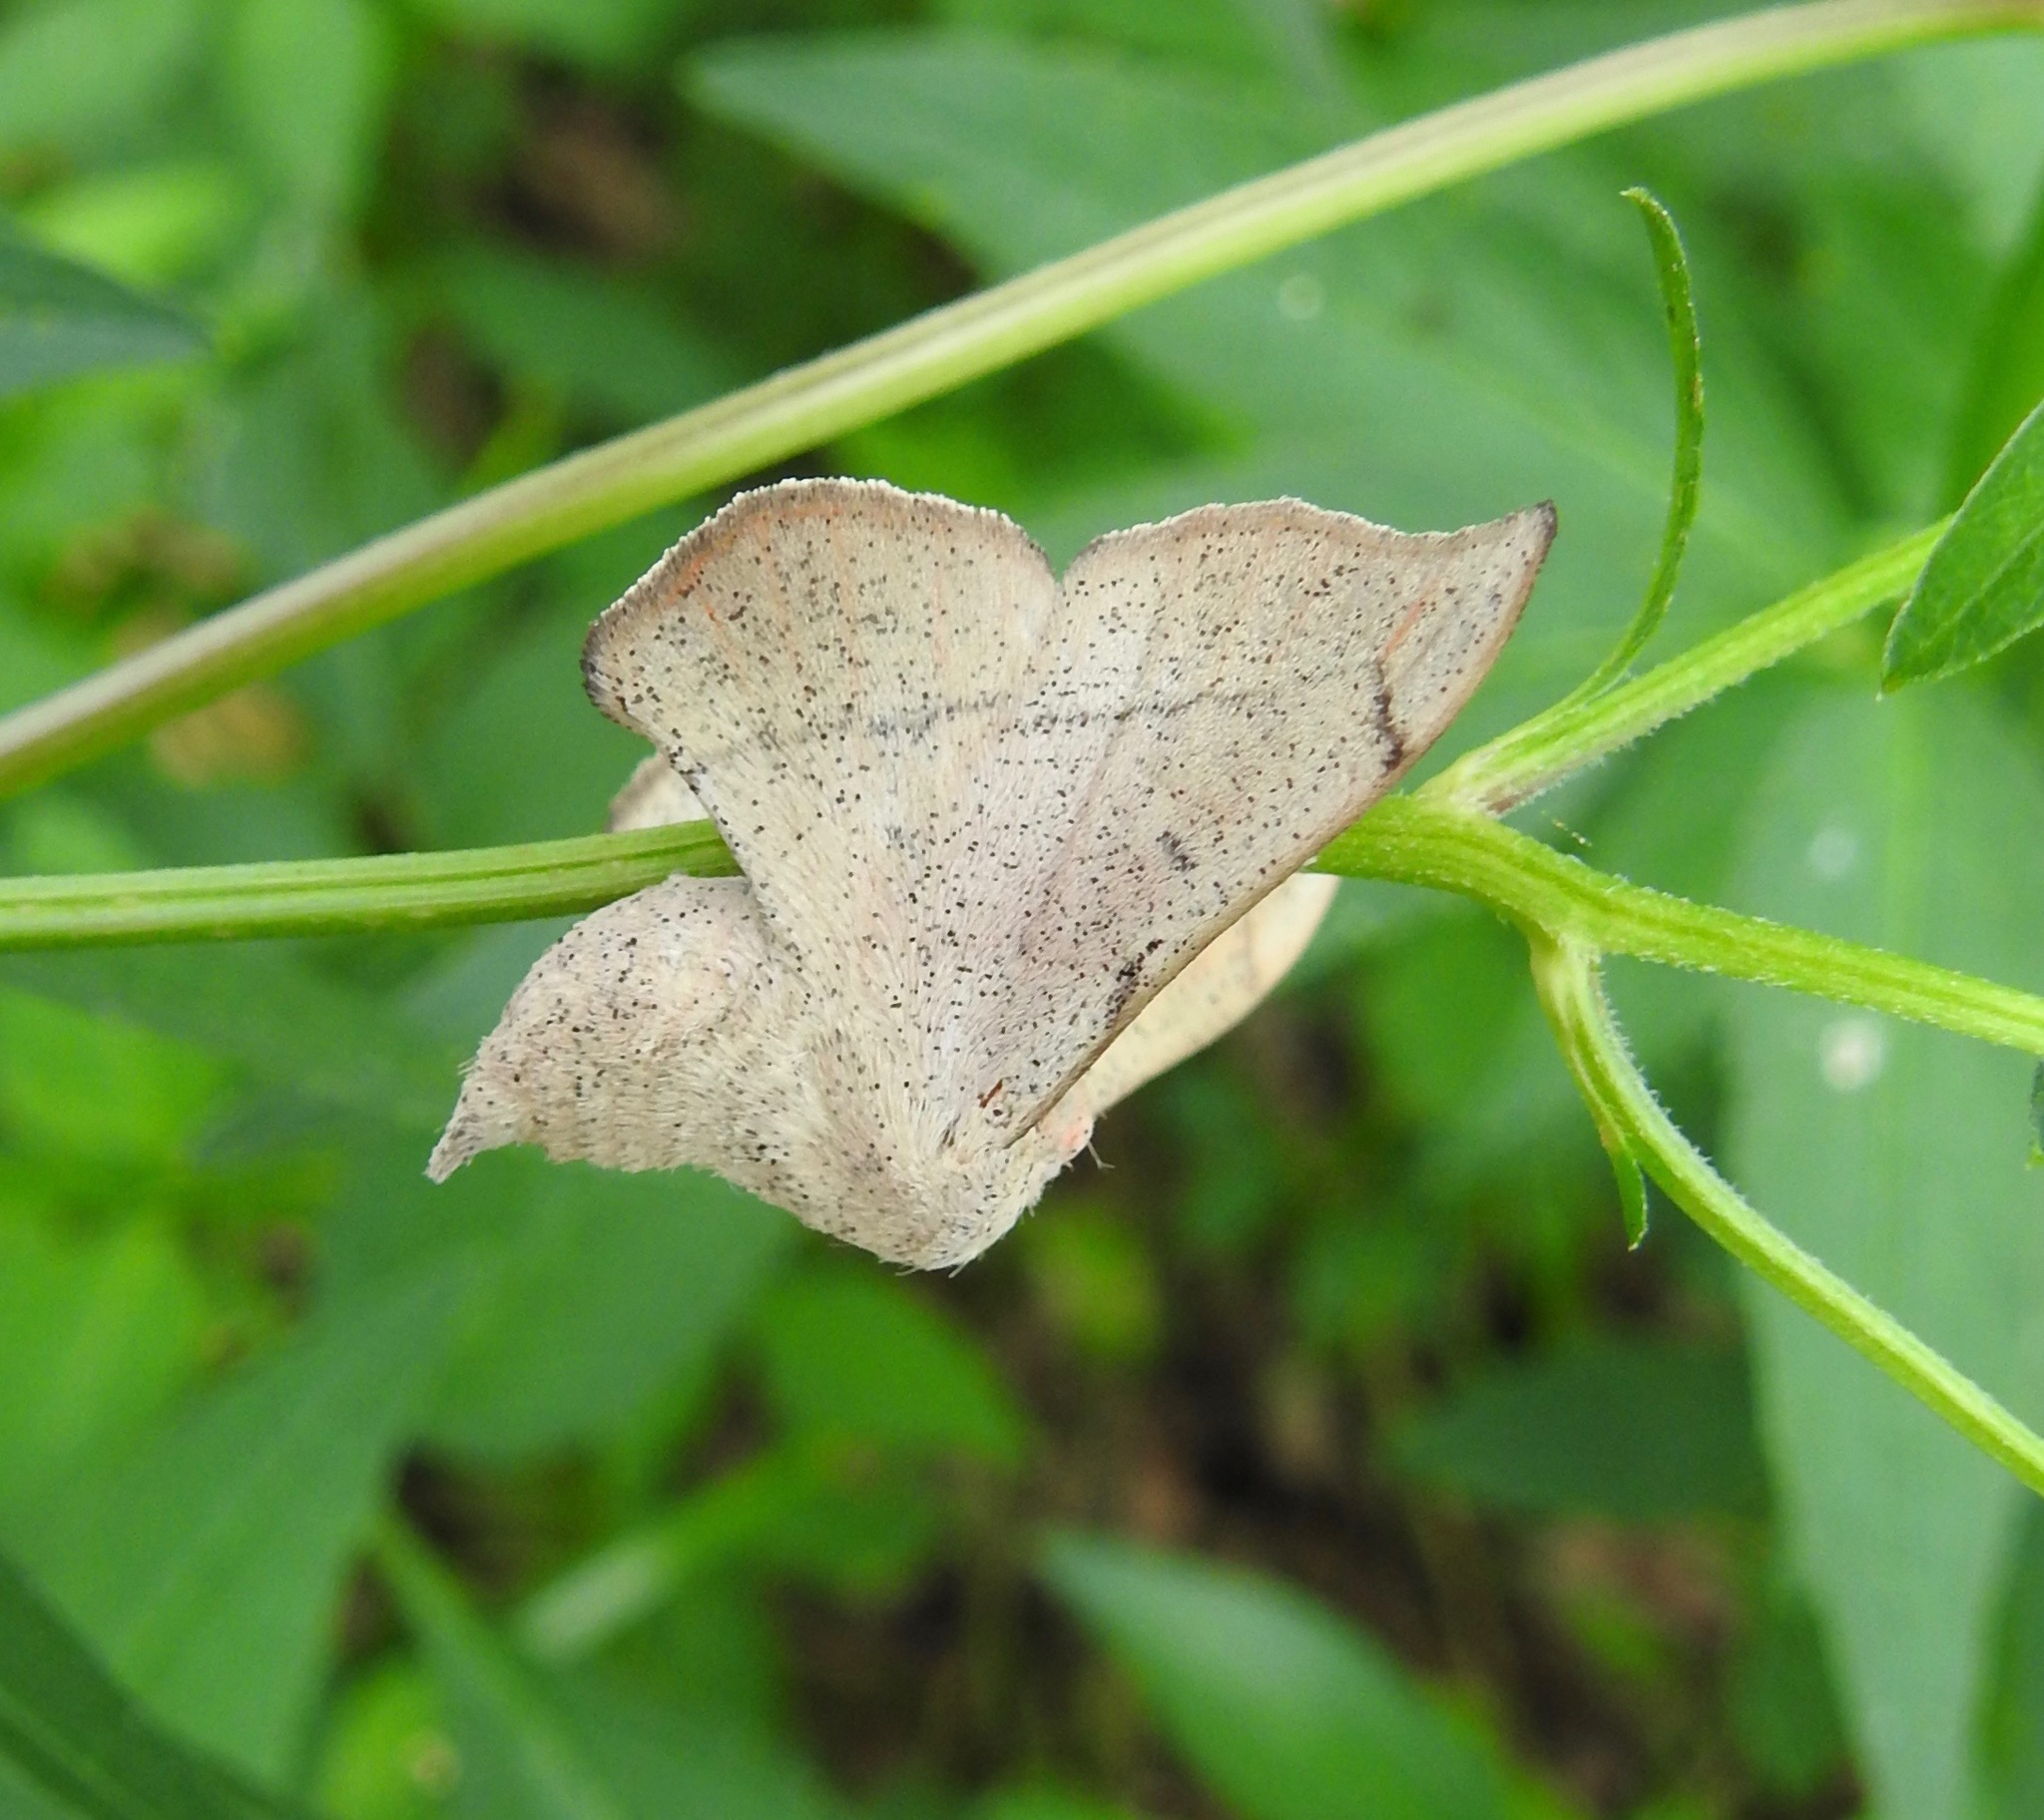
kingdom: Animalia
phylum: Arthropoda
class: Insecta
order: Lepidoptera
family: Mimallonidae
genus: Cicinnus
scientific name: Cicinnus melsheimeri
